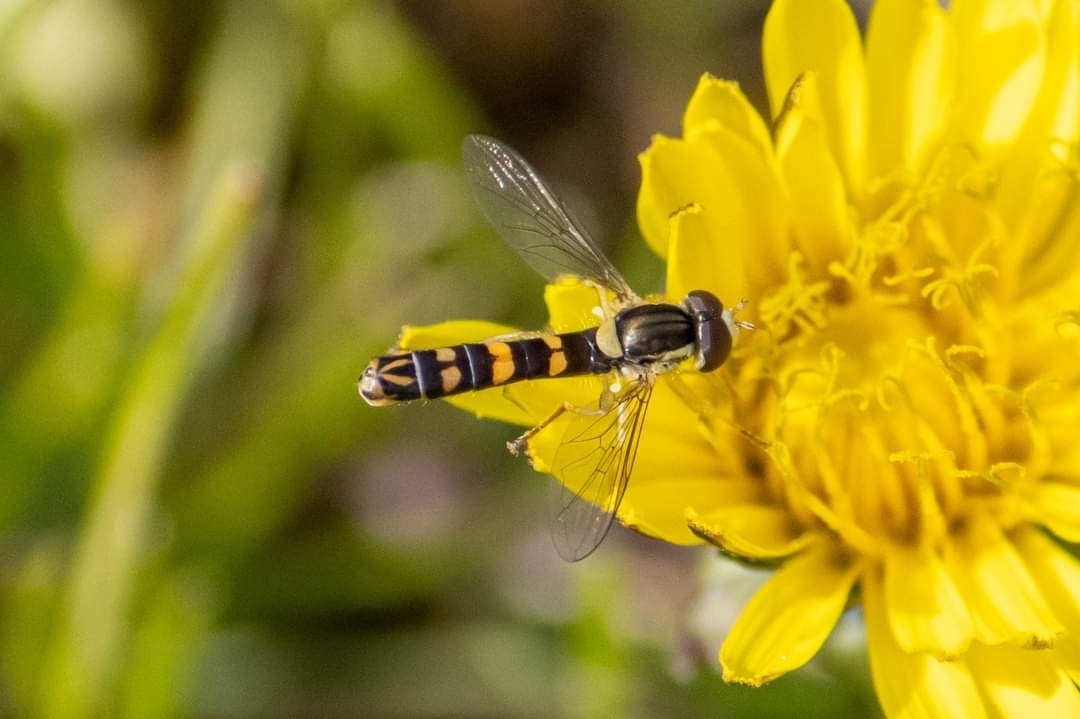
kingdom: Animalia
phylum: Arthropoda
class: Insecta
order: Diptera
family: Syrphidae
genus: Sphaerophoria
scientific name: Sphaerophoria scripta
